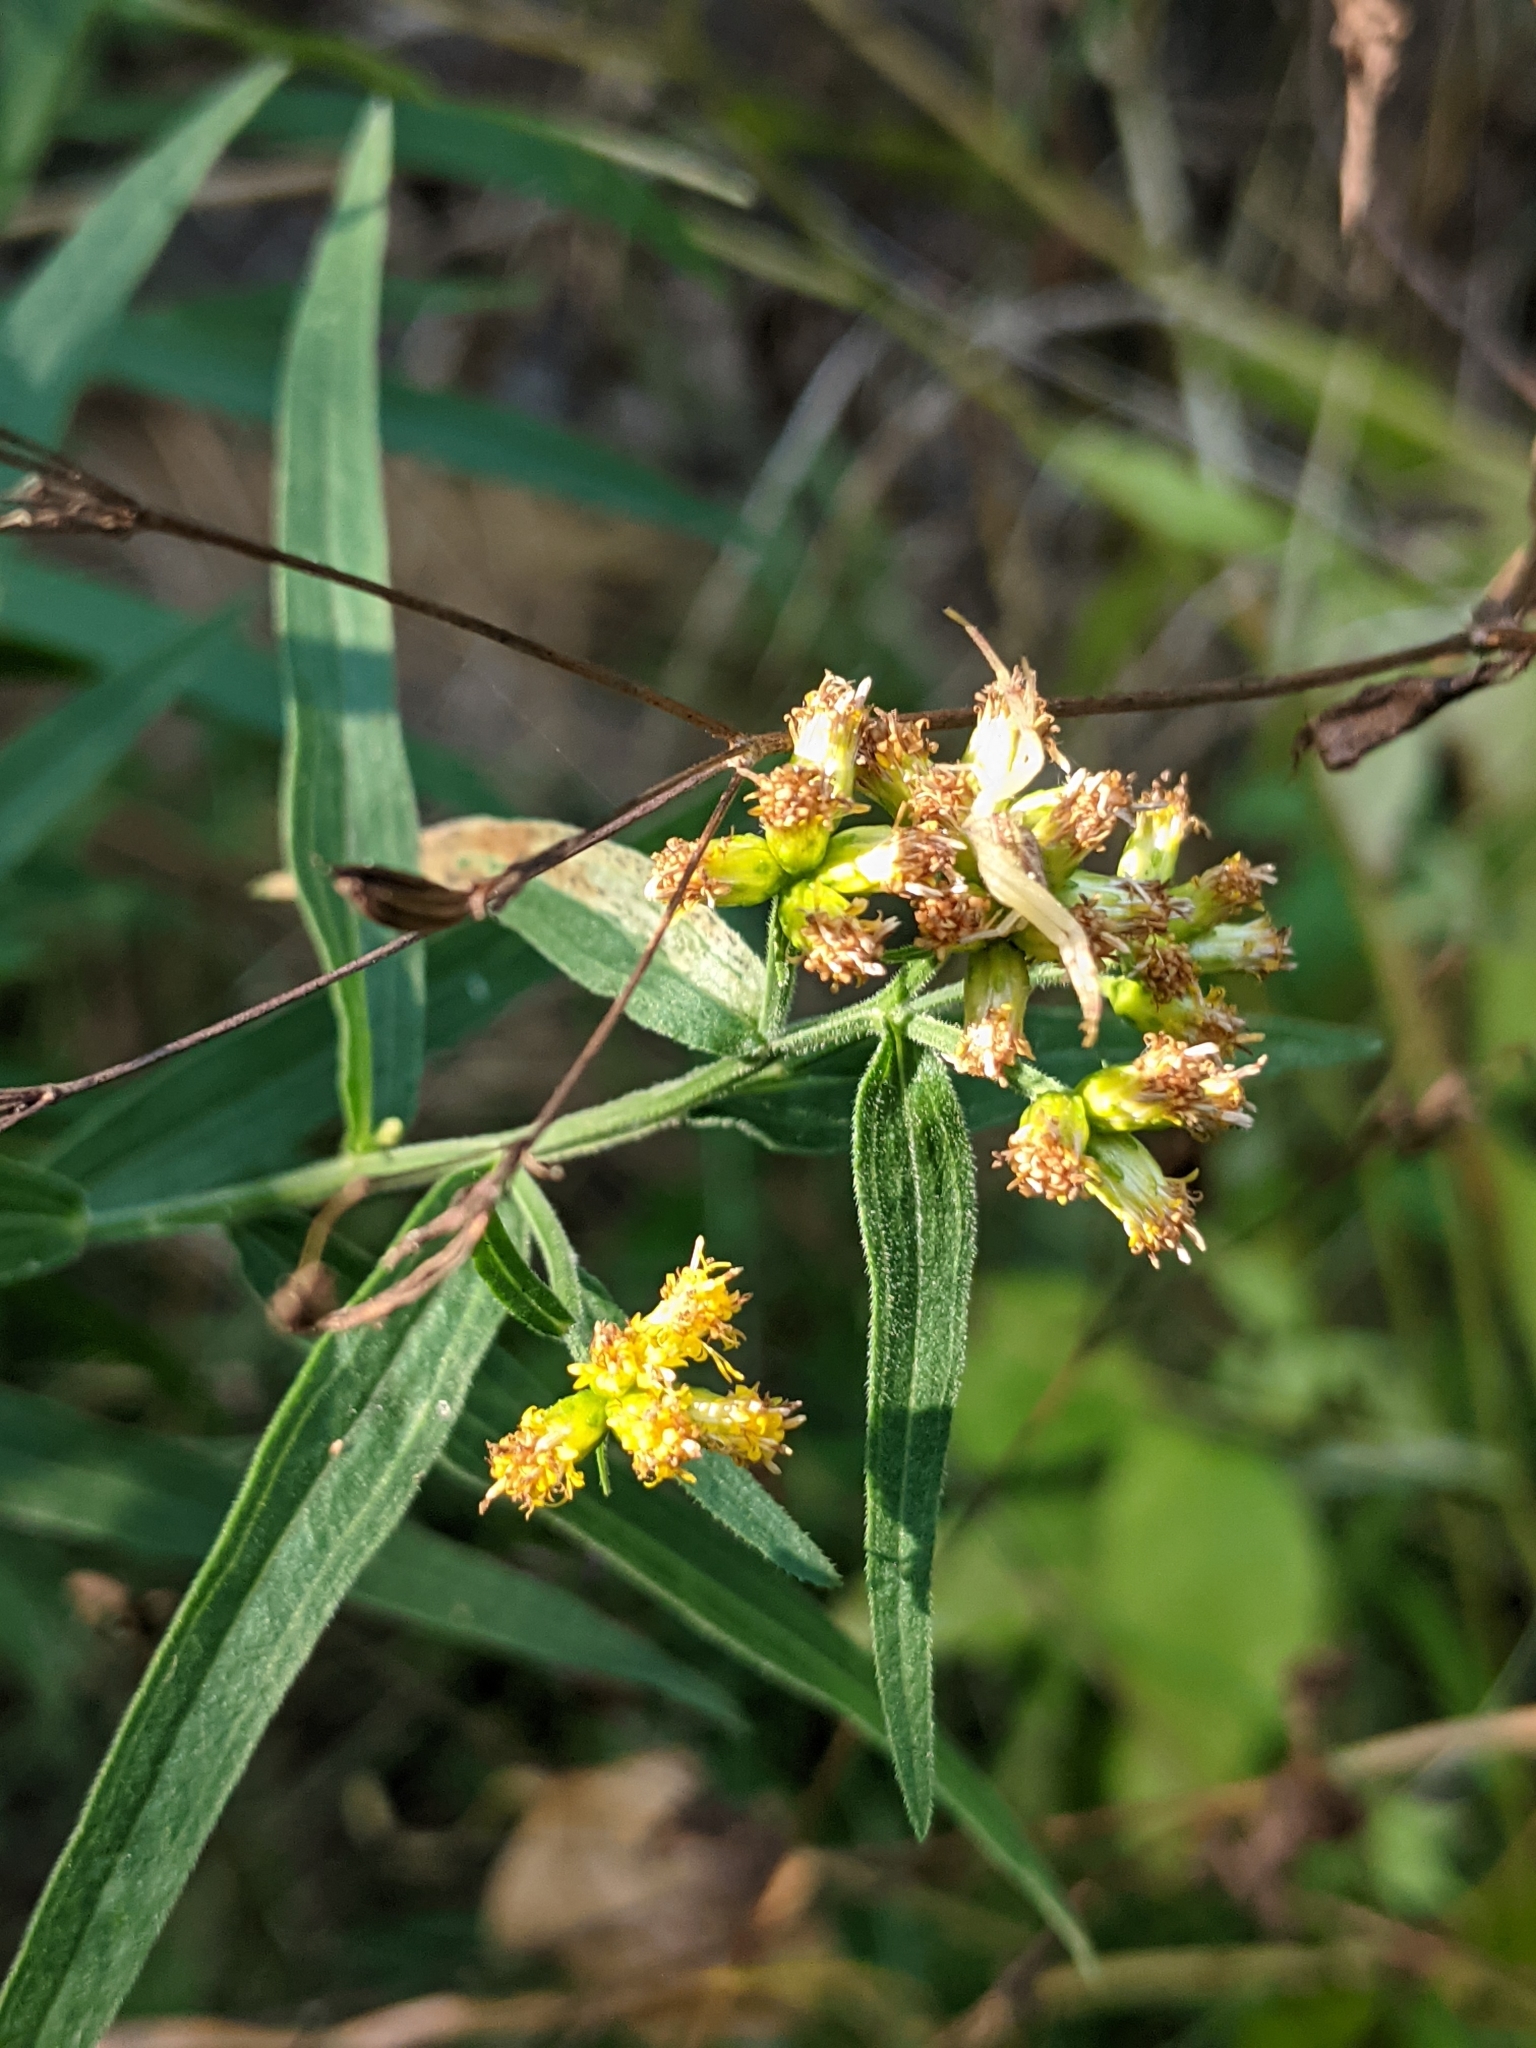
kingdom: Plantae
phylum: Tracheophyta
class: Magnoliopsida
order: Asterales
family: Asteraceae
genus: Euthamia
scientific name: Euthamia graminifolia
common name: Common goldentop
